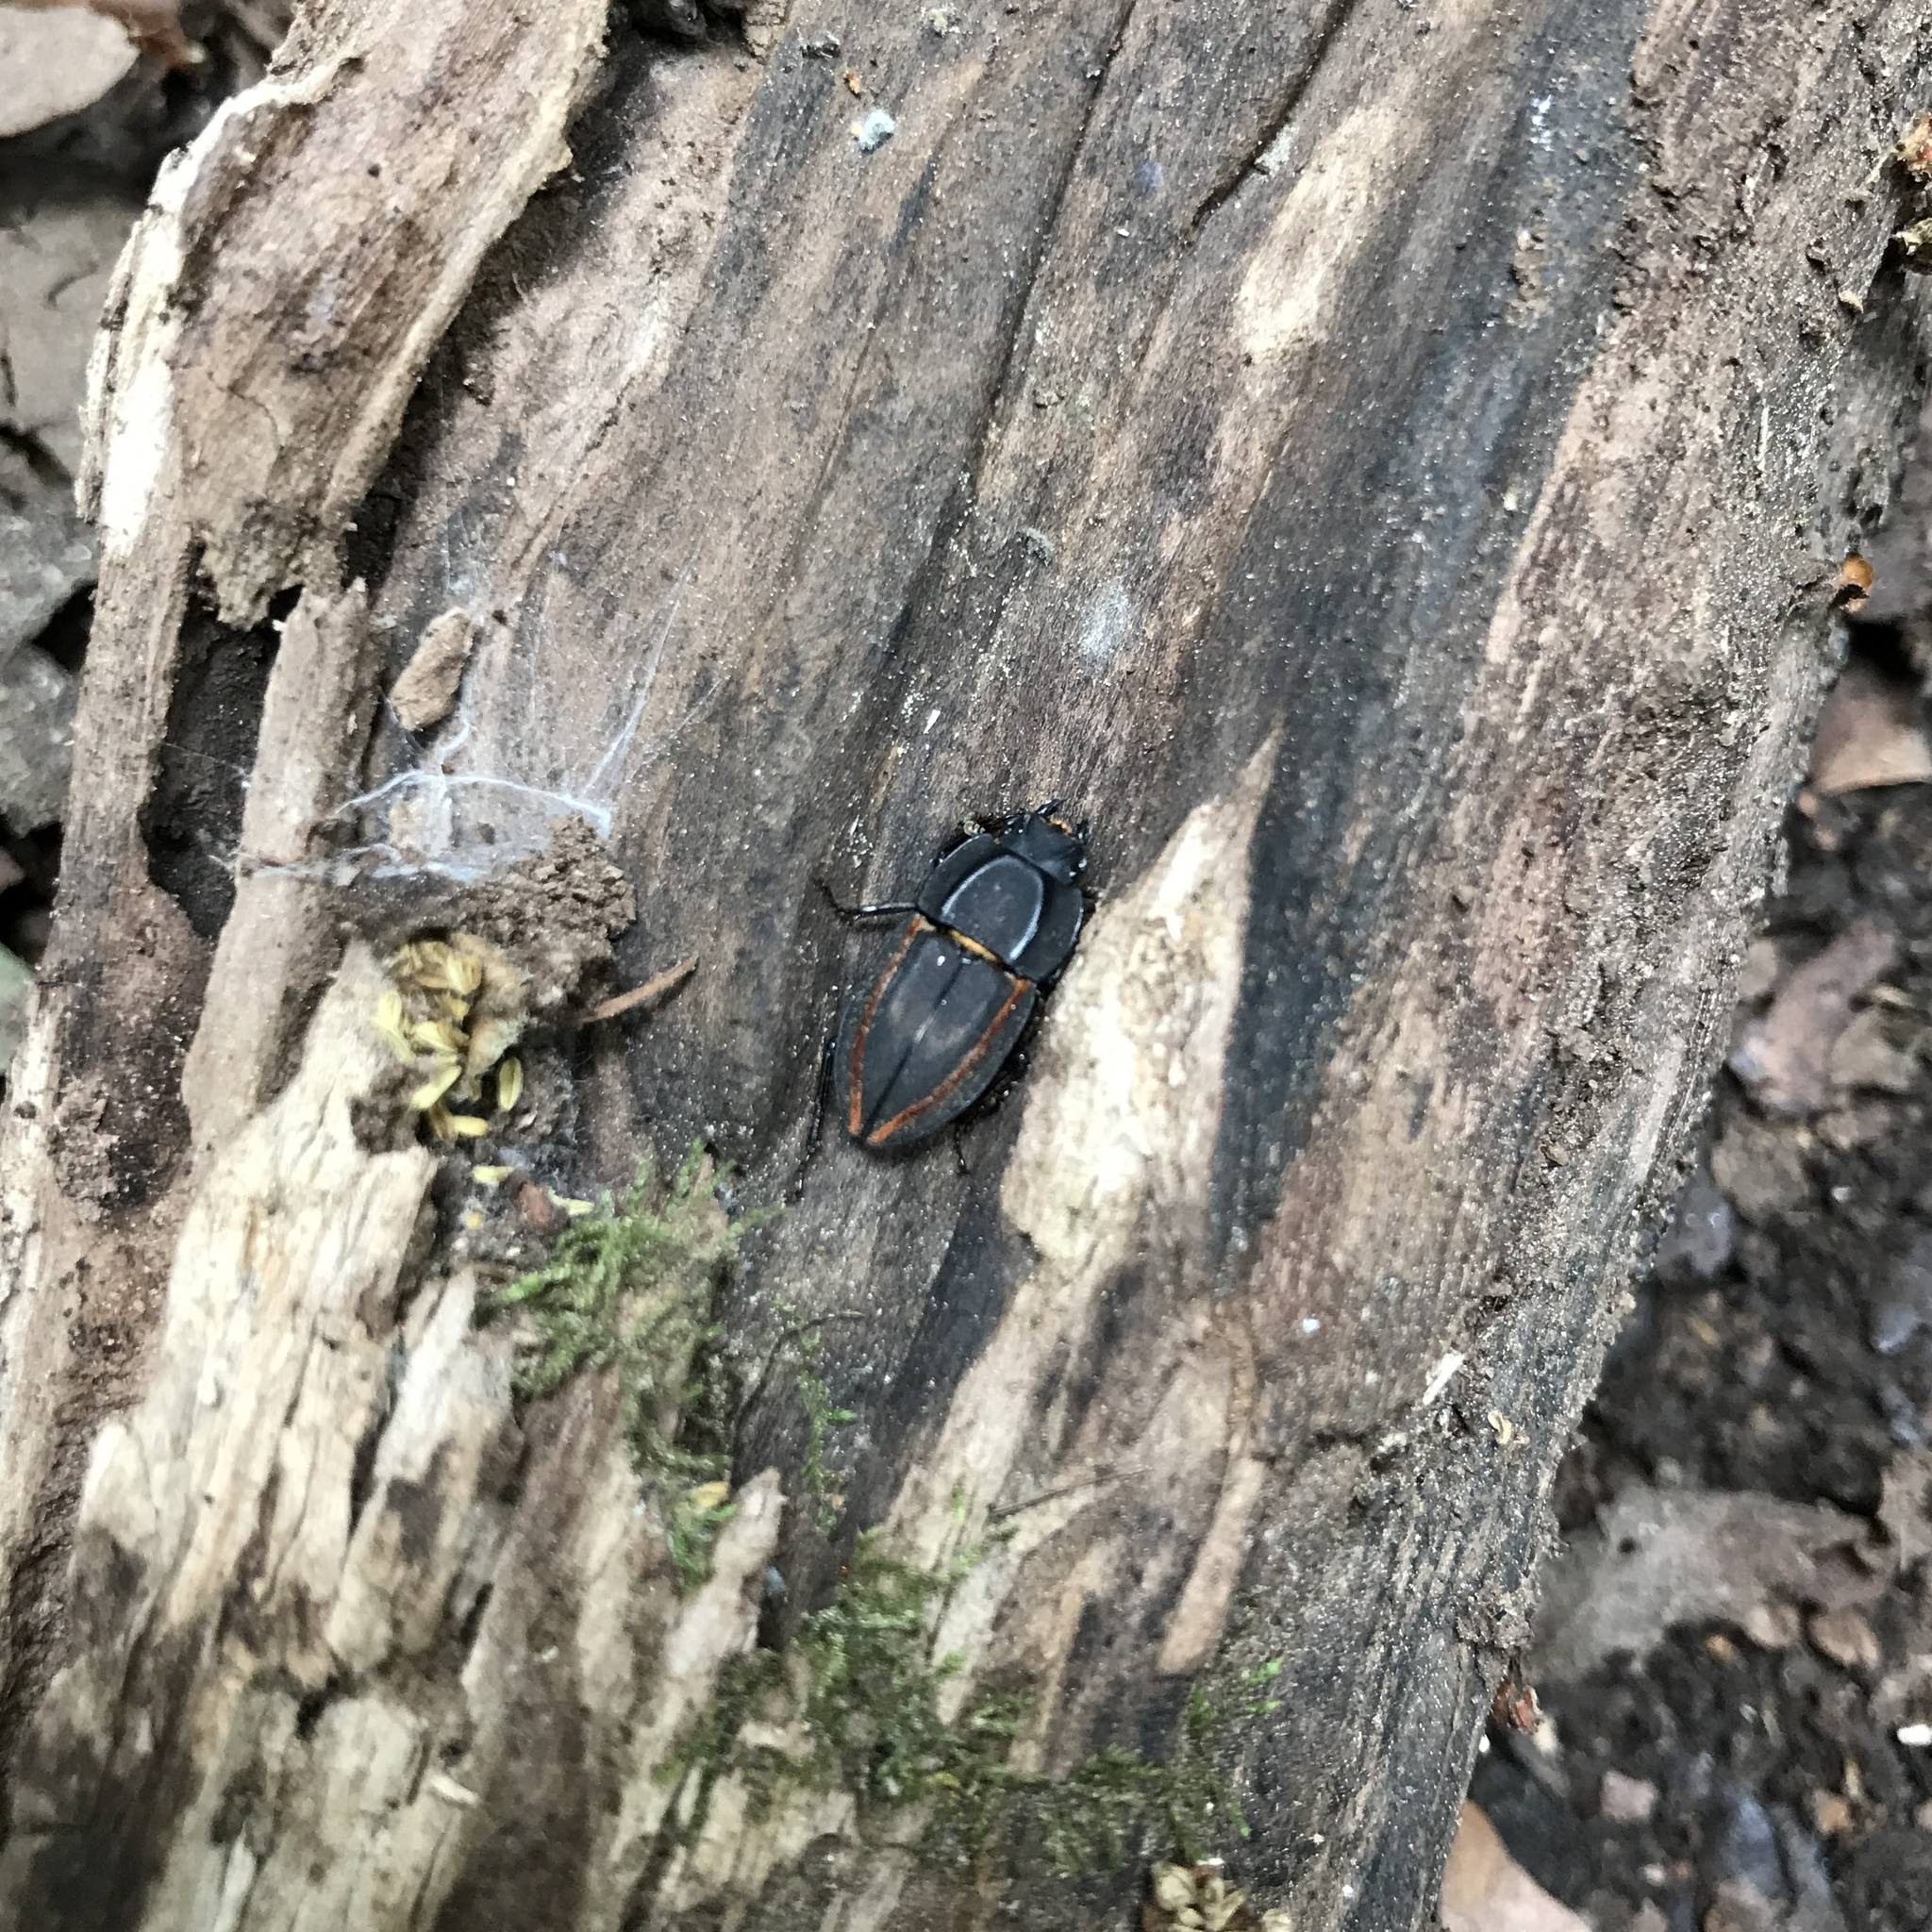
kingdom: Animalia
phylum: Arthropoda
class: Insecta
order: Coleoptera
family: Lucanidae
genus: Erichius
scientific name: Erichius vittatus
